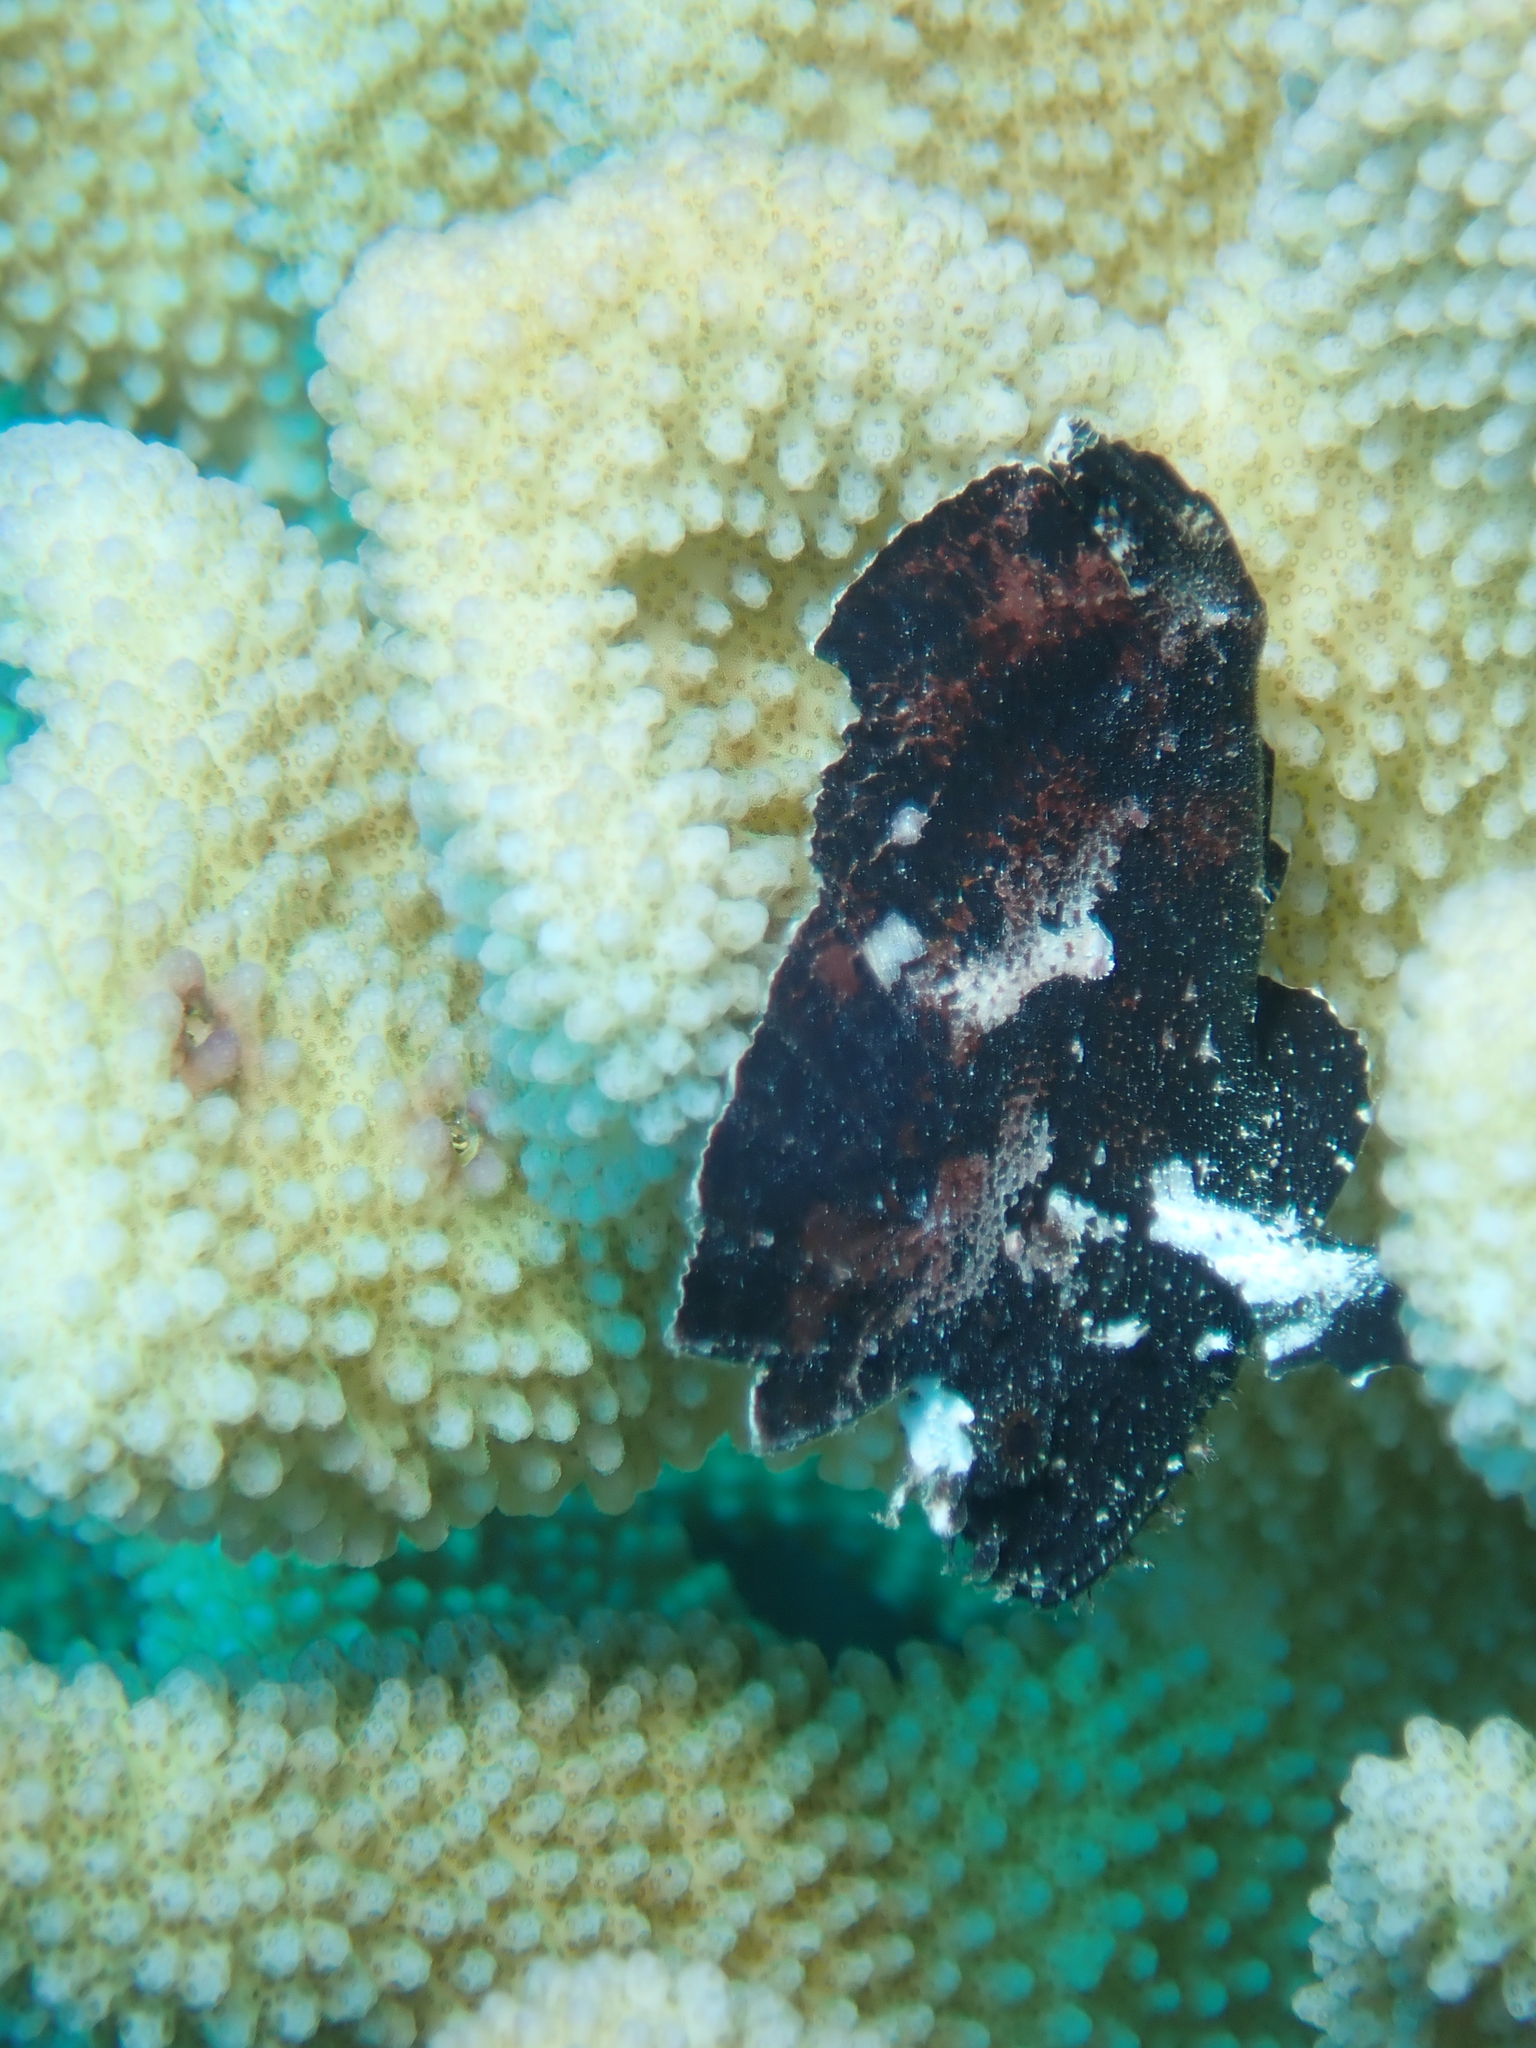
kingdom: Animalia
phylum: Chordata
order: Scorpaeniformes
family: Scorpaenidae
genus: Taenianotus
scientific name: Taenianotus triacanthus
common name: Leaf scorpionfish
